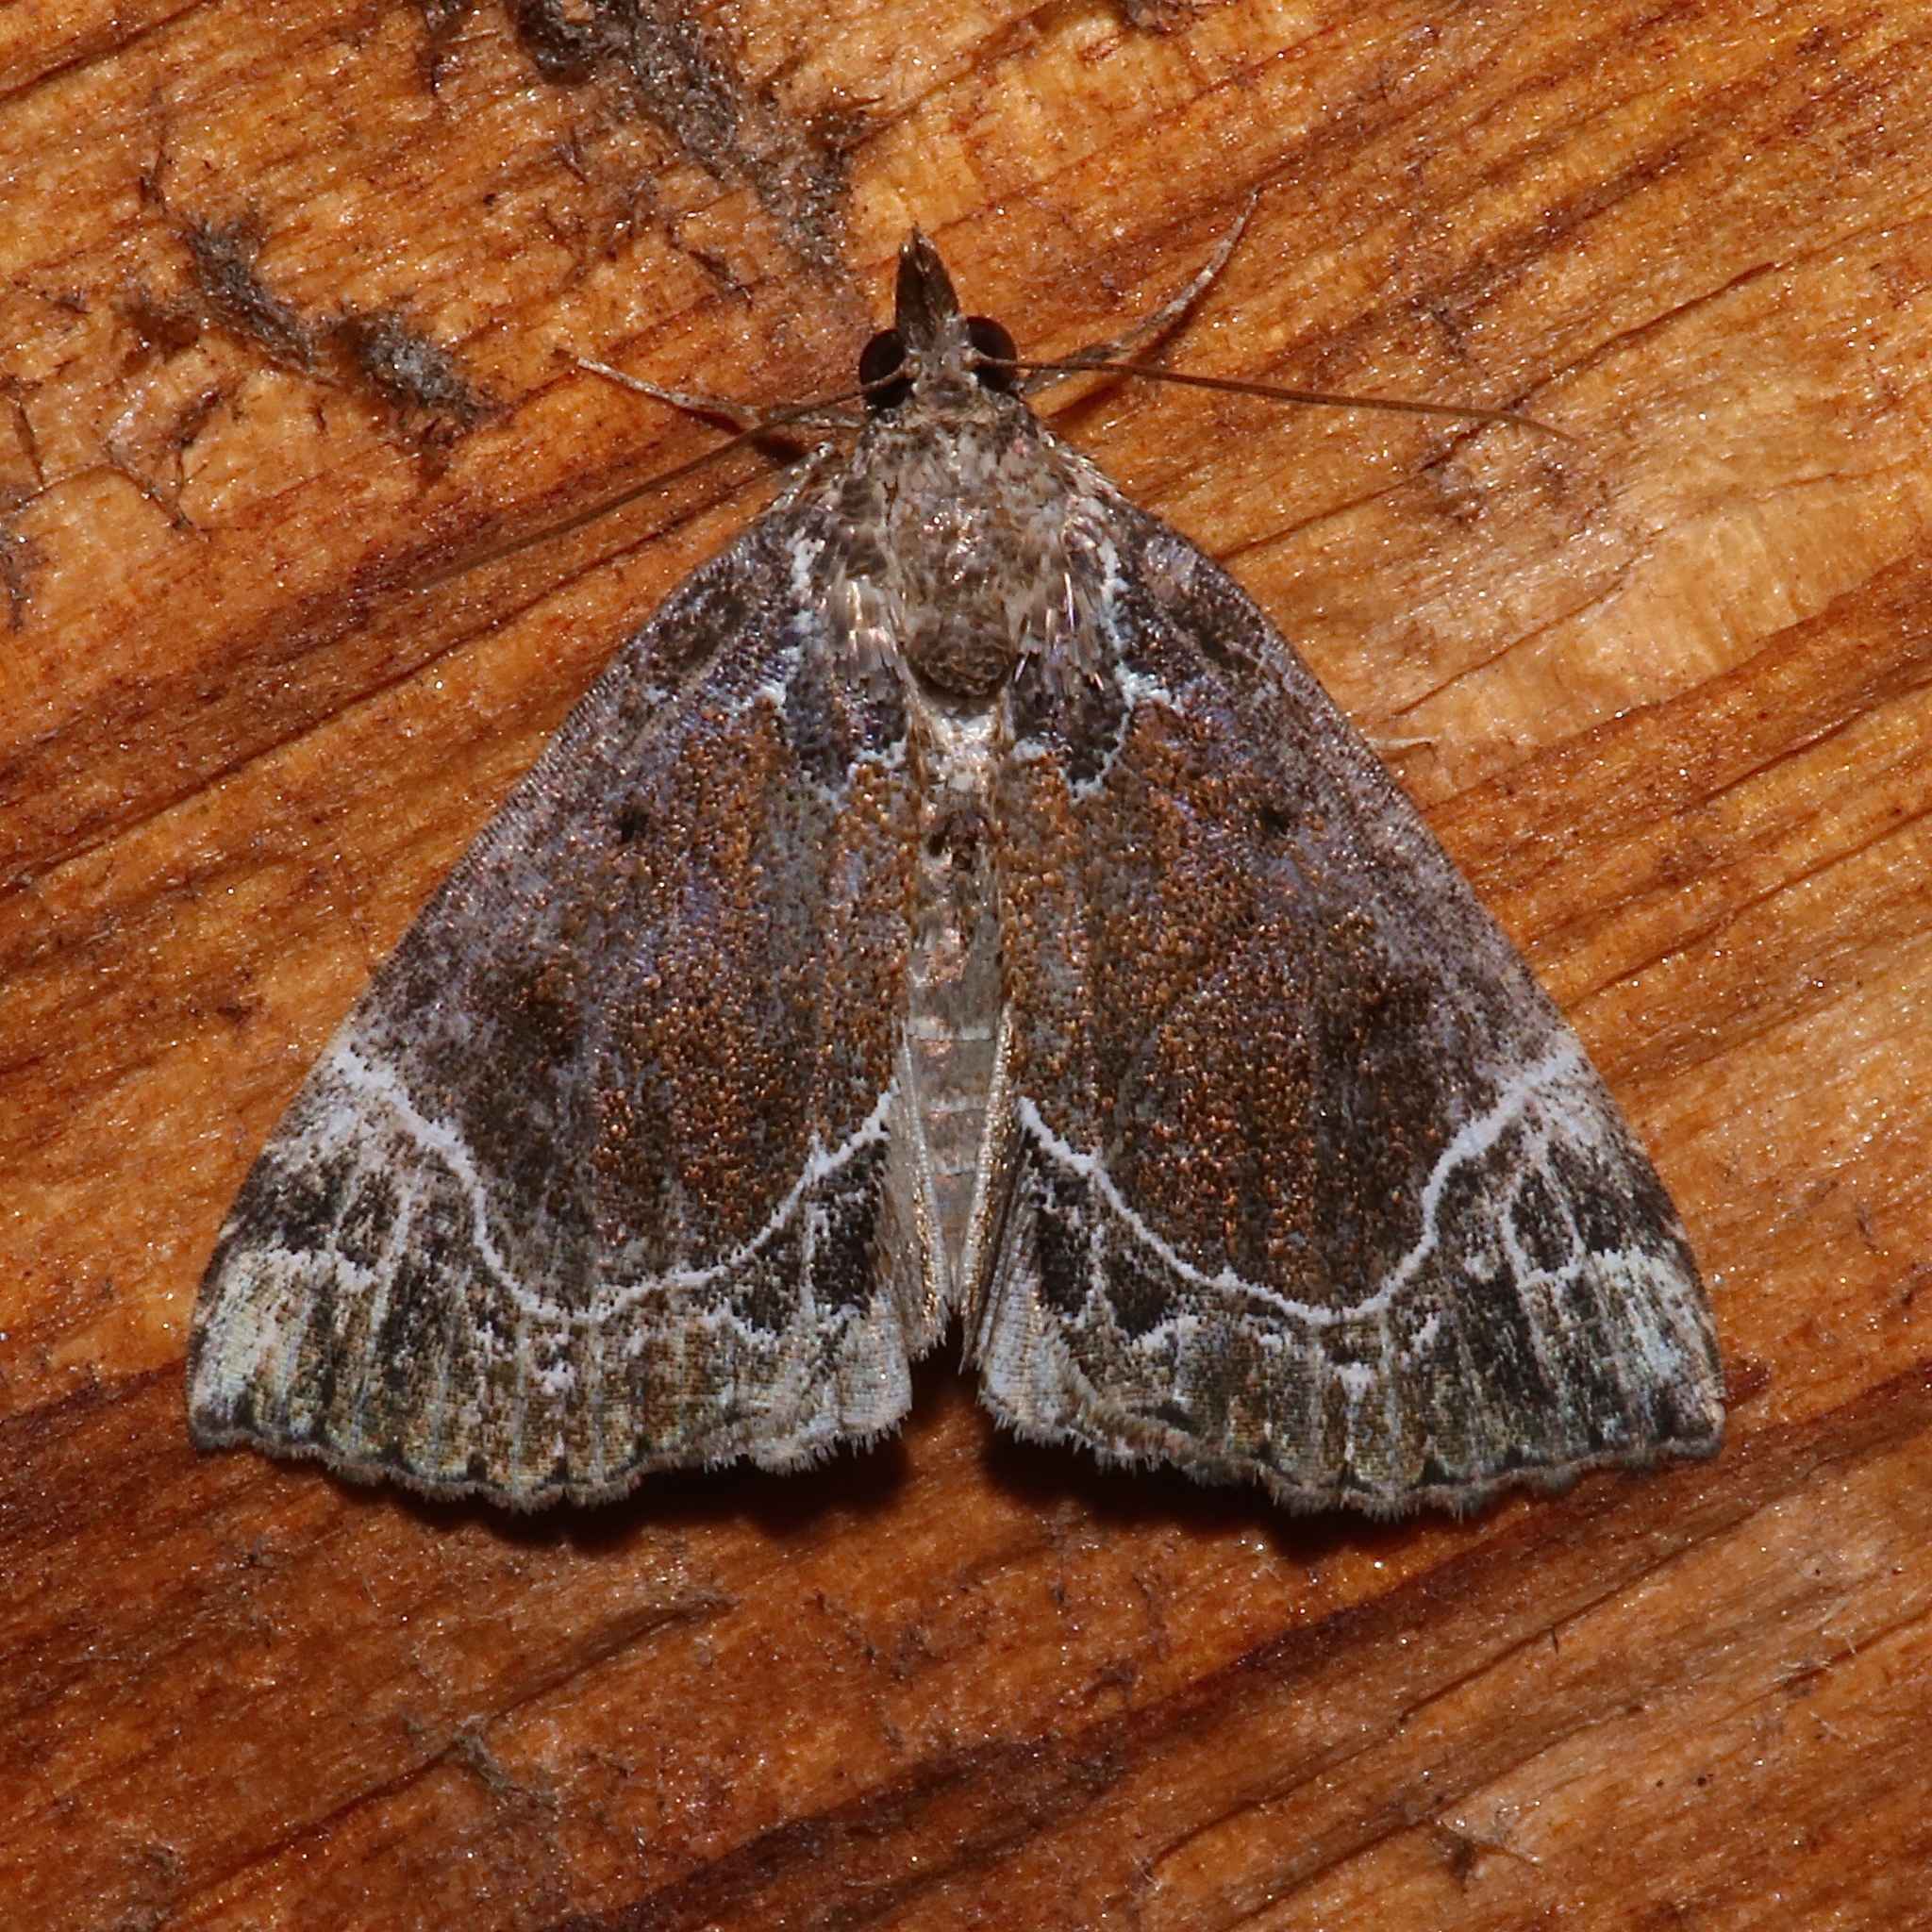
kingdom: Animalia
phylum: Arthropoda
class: Insecta
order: Lepidoptera
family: Erebidae
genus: Hypena
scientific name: Hypena abalienalis
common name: White-lined snout
